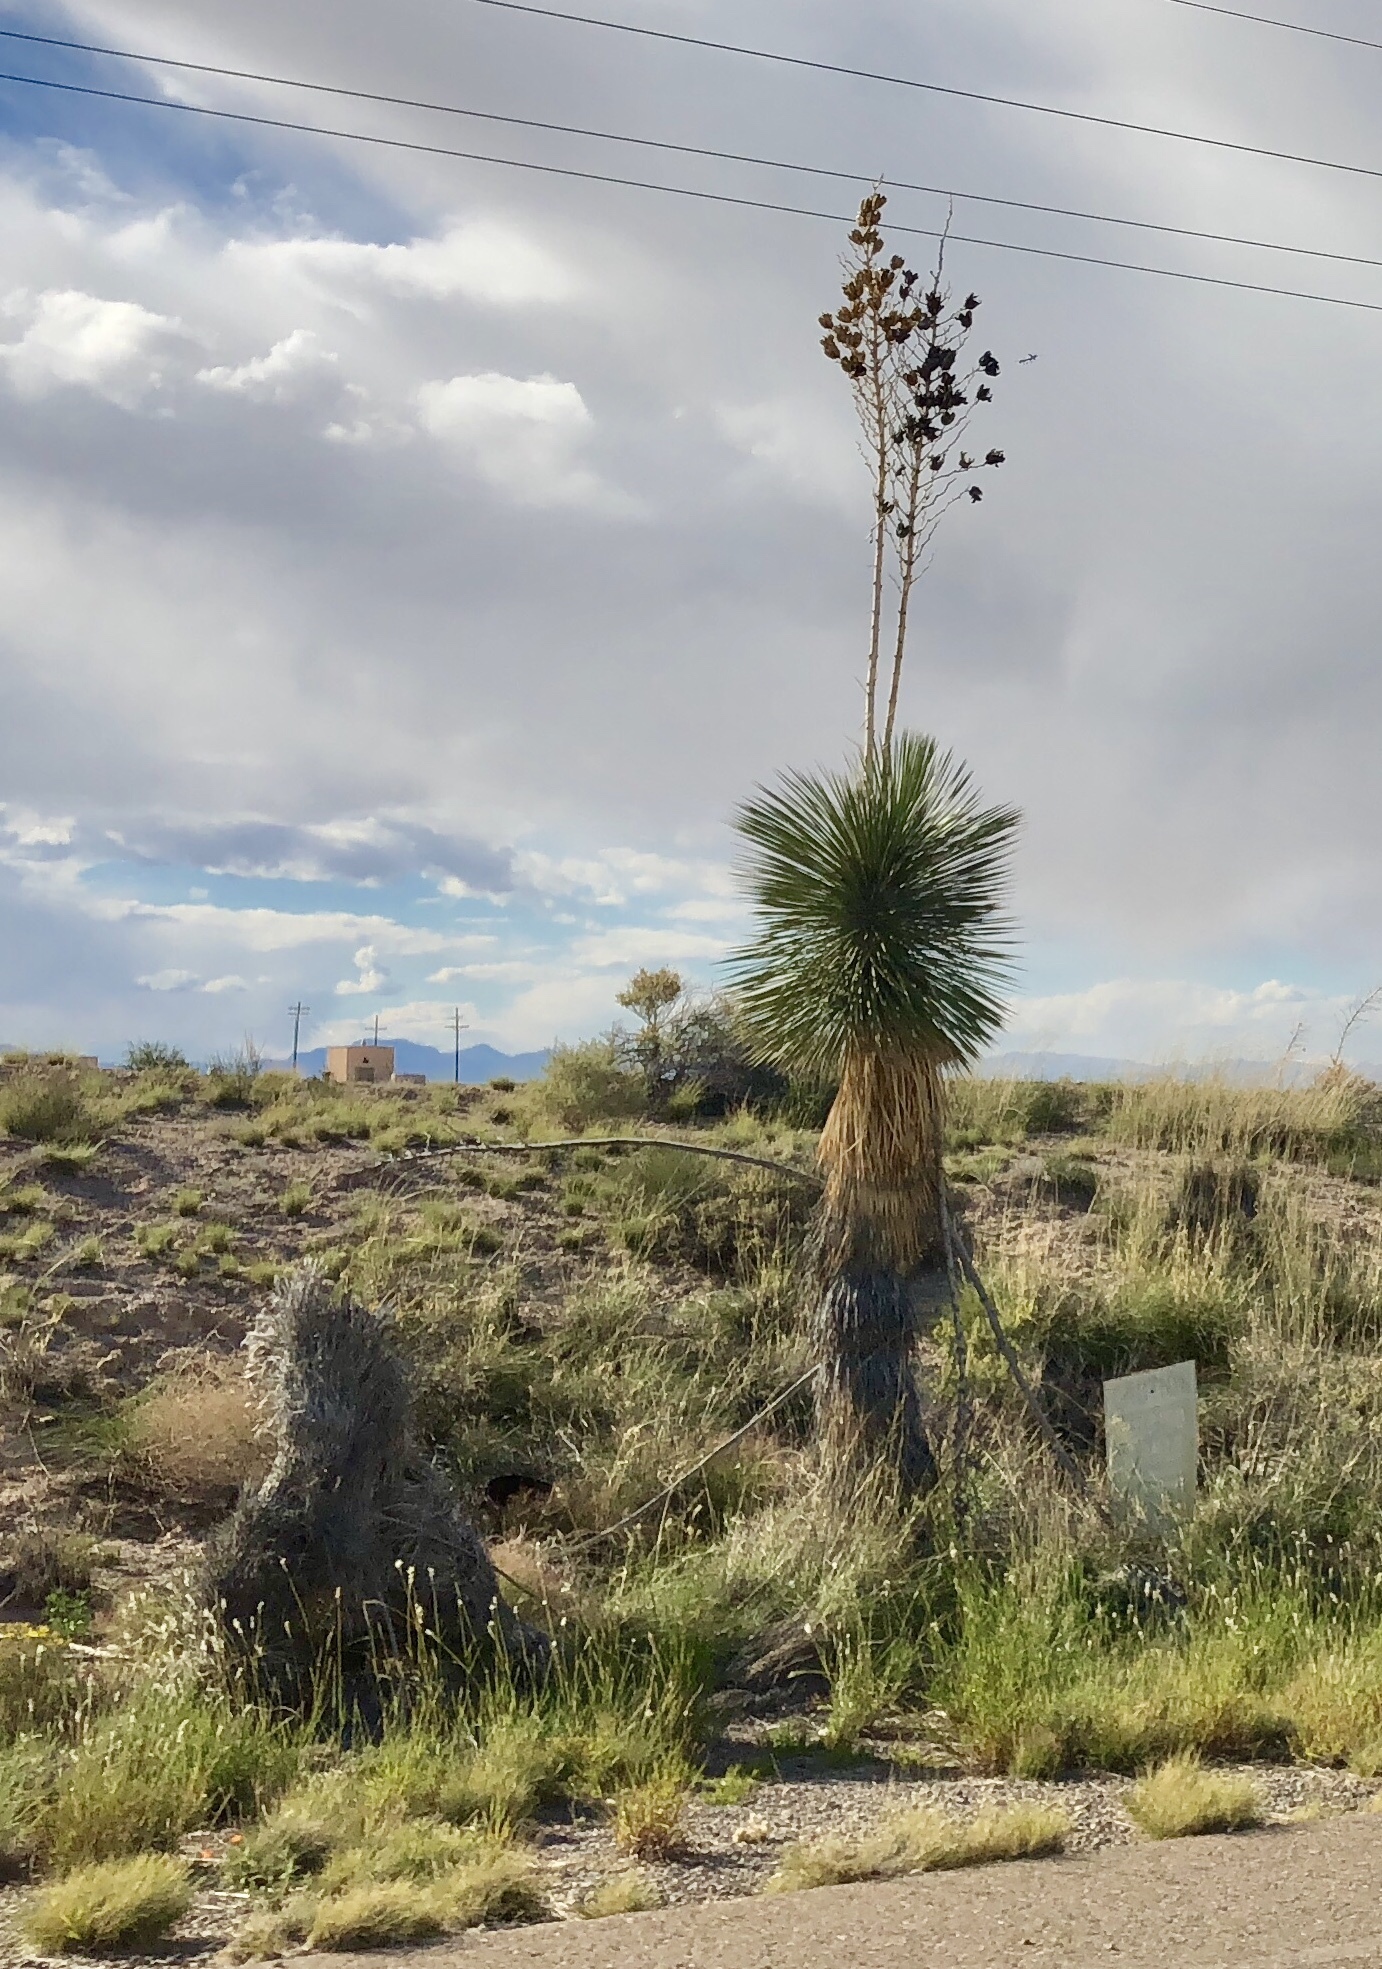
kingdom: Plantae
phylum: Tracheophyta
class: Liliopsida
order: Asparagales
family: Asparagaceae
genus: Yucca
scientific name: Yucca elata
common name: Palmella
